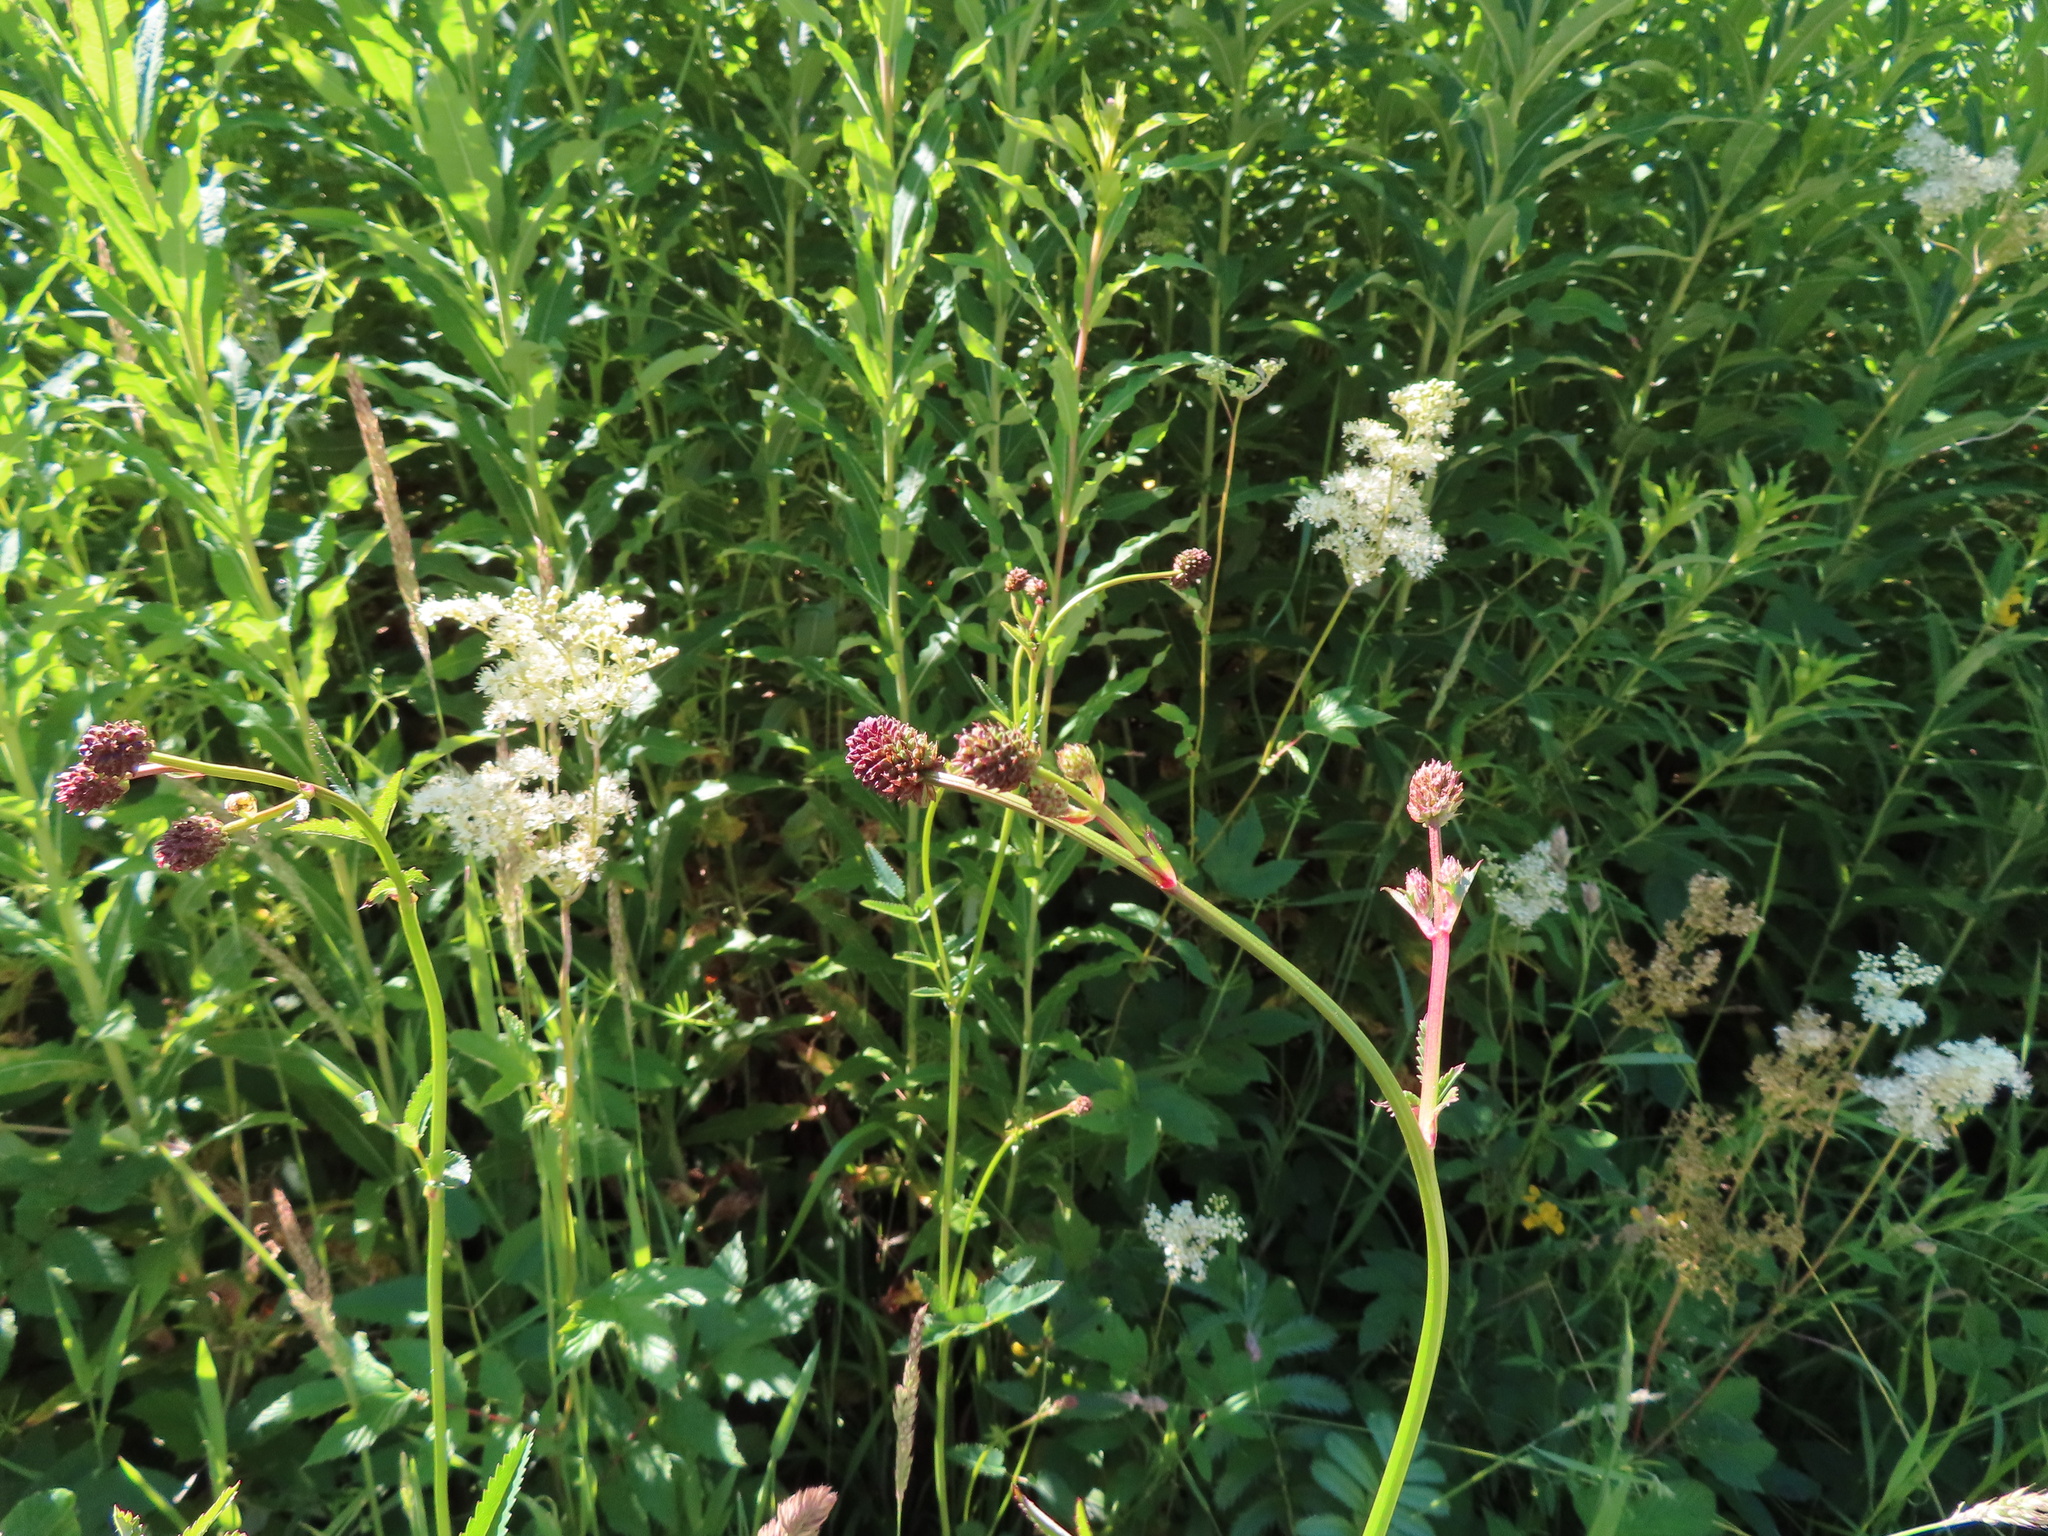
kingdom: Plantae
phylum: Tracheophyta
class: Magnoliopsida
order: Rosales
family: Rosaceae
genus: Sanguisorba
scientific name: Sanguisorba officinalis
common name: Great burnet
